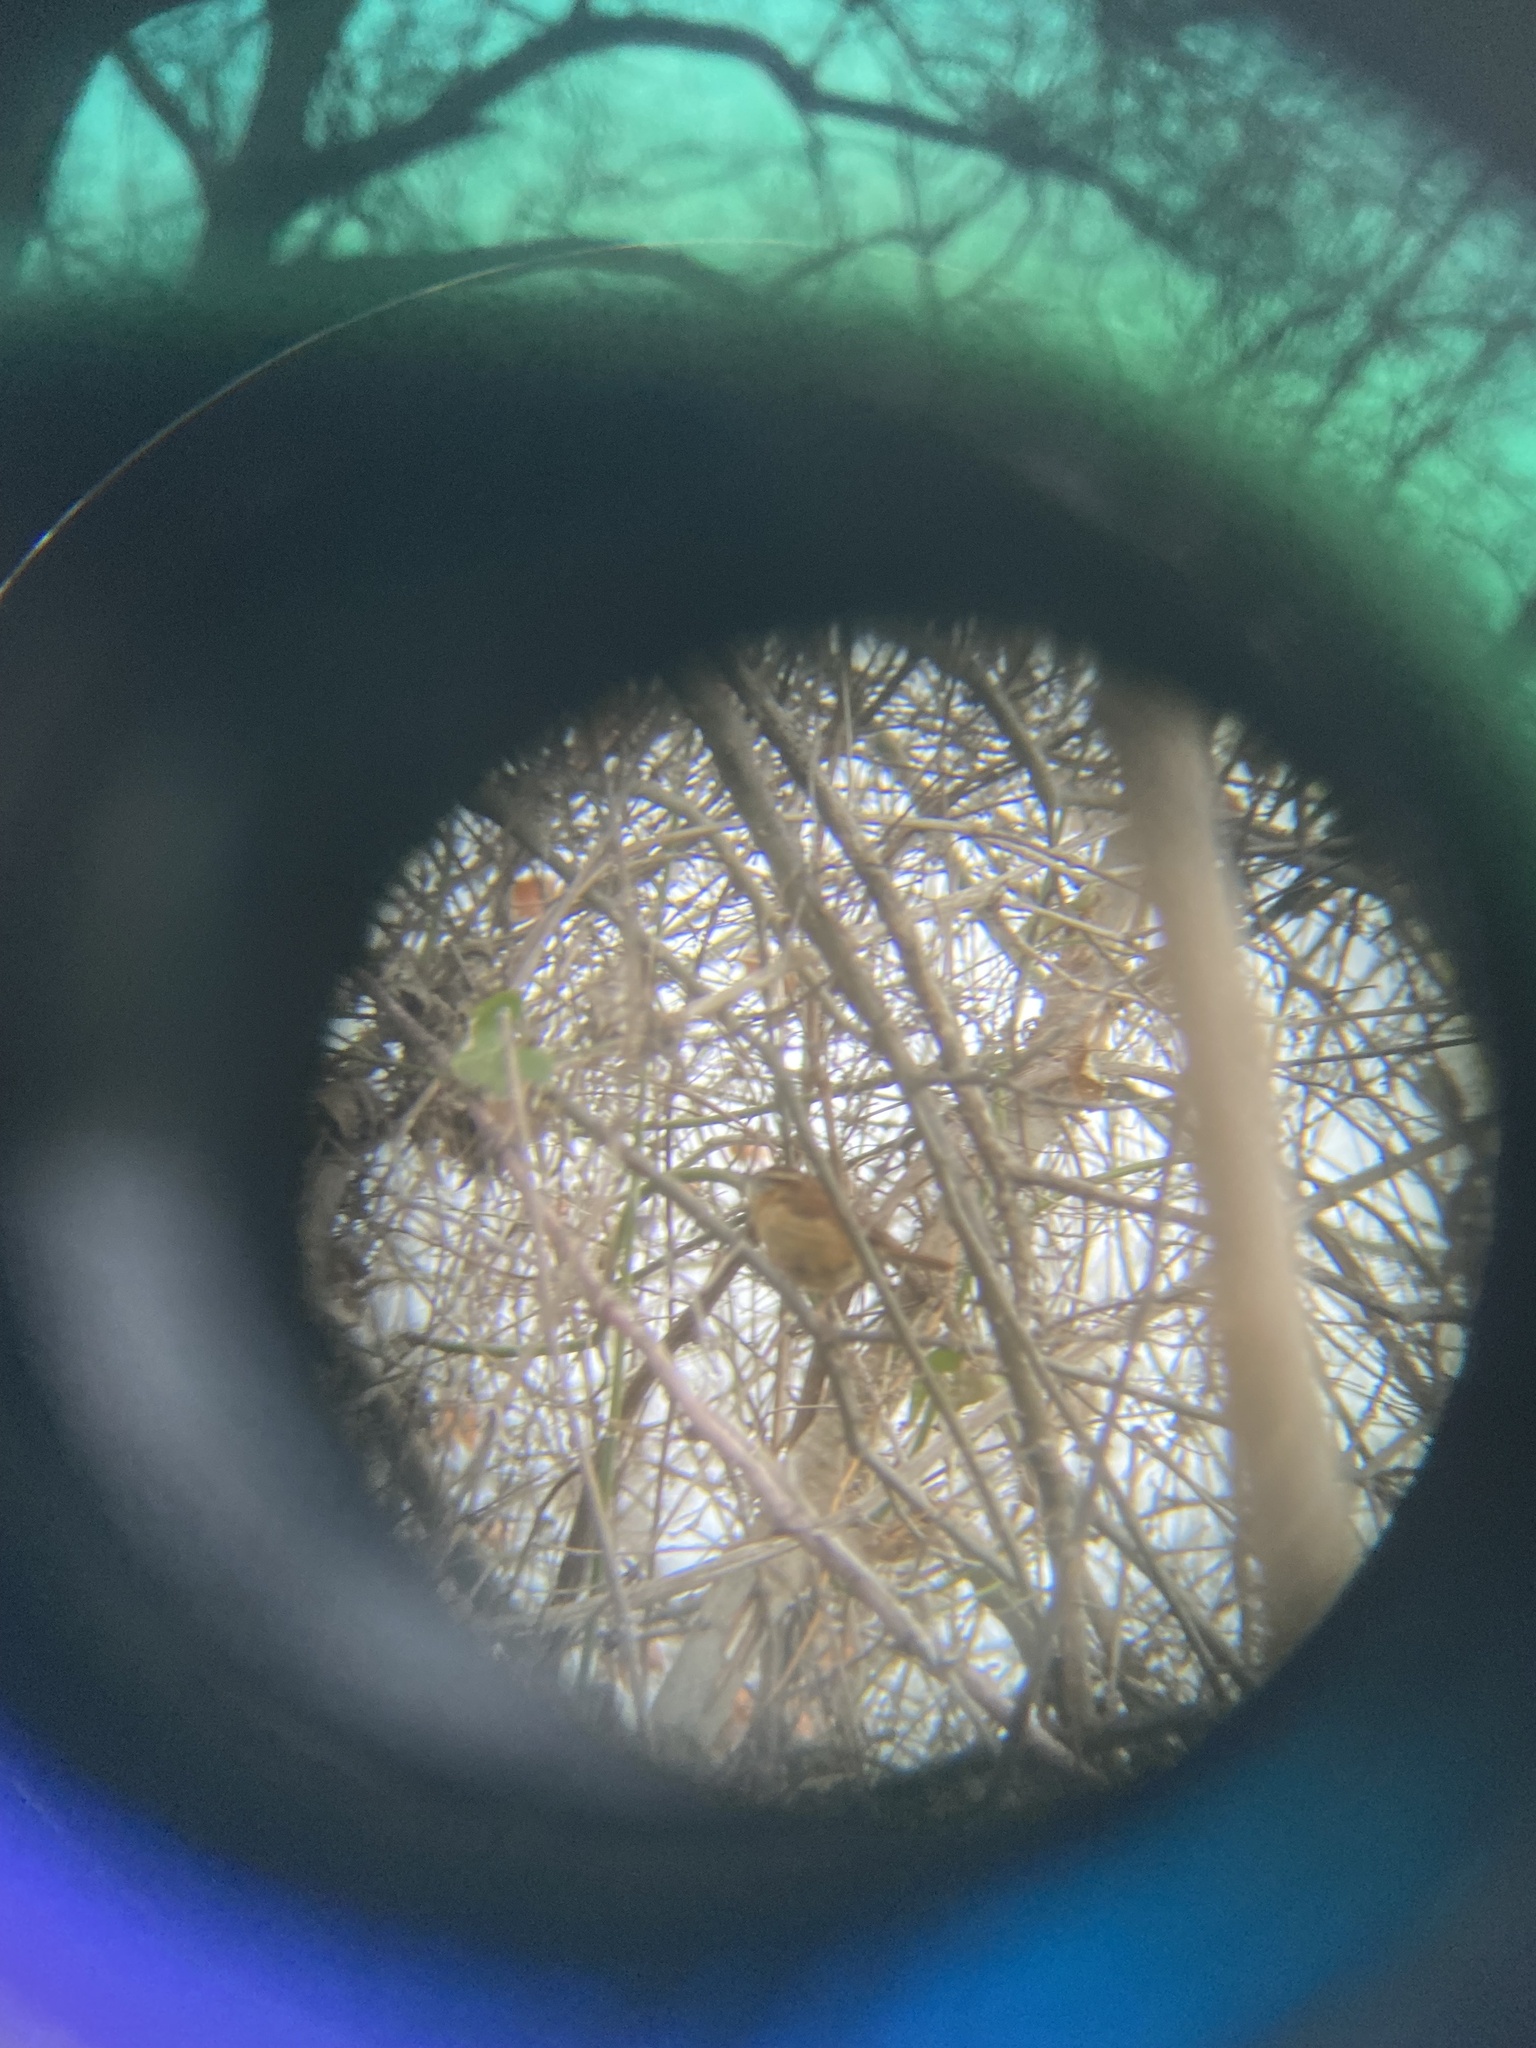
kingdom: Animalia
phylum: Chordata
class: Aves
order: Passeriformes
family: Troglodytidae
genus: Thryothorus
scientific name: Thryothorus ludovicianus
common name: Carolina wren
